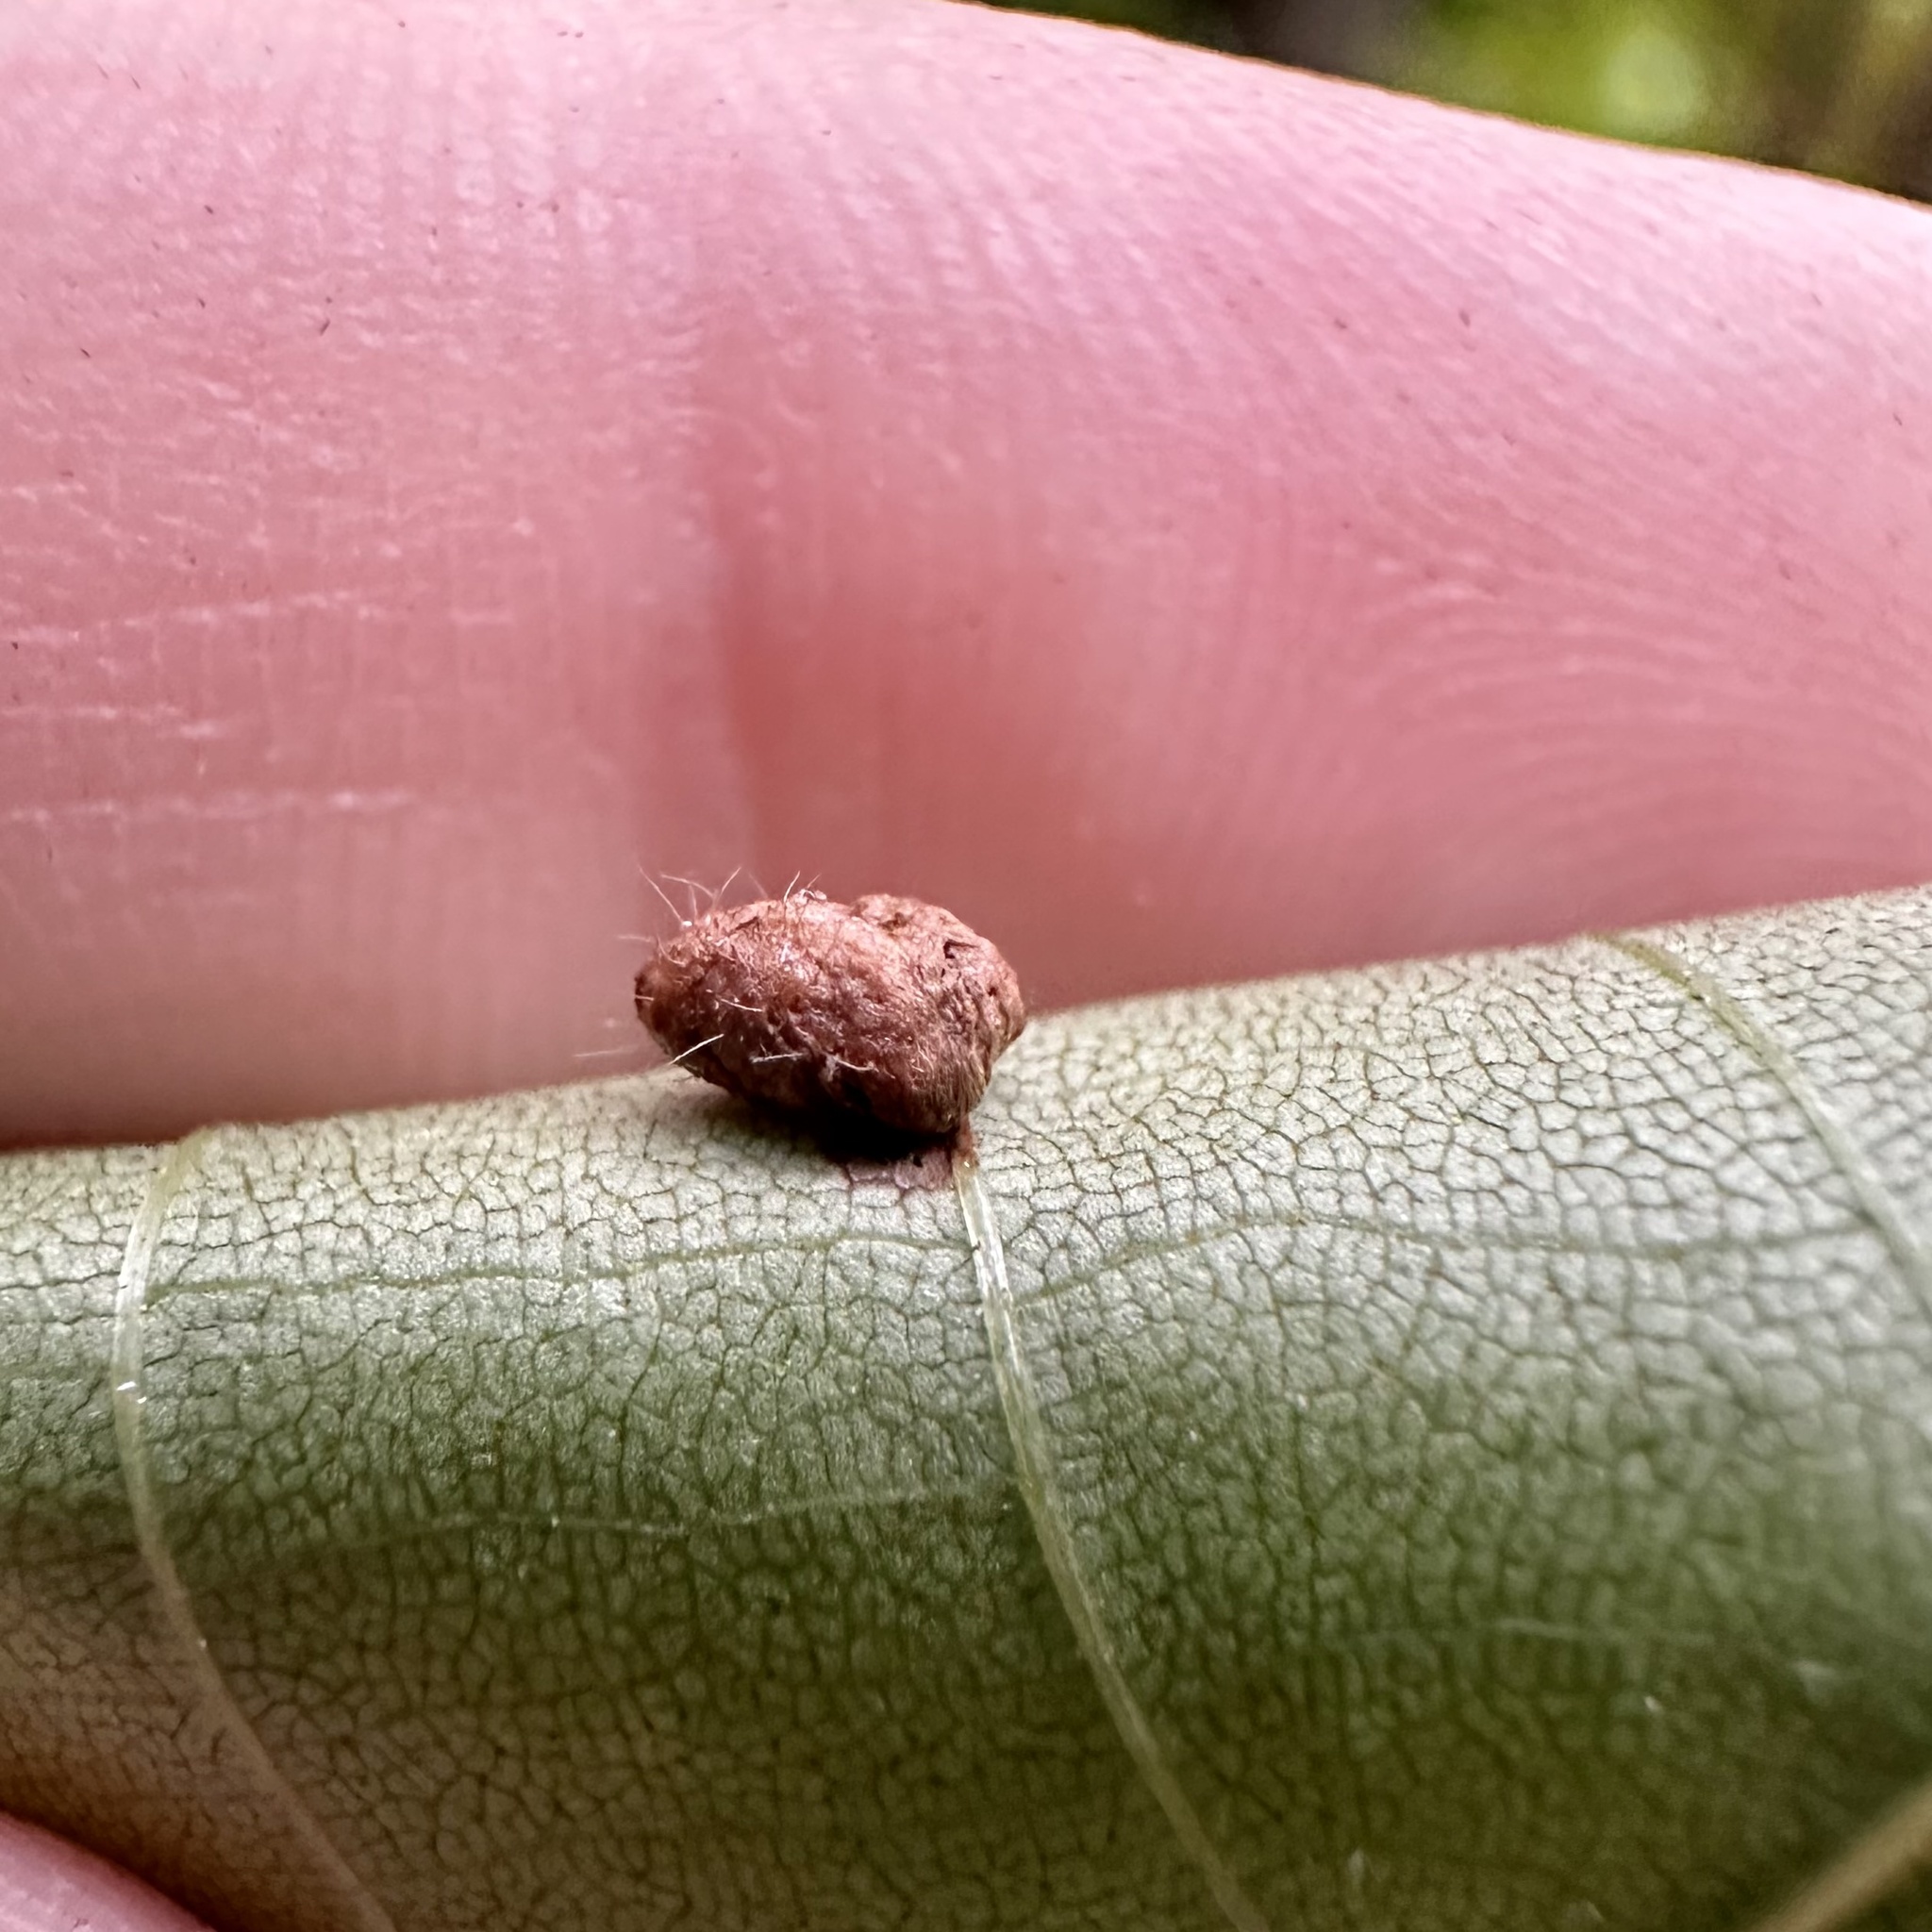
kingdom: Animalia
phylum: Arthropoda
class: Insecta
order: Diptera
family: Cecidomyiidae
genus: Contarinia
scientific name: Contarinia cucumata
